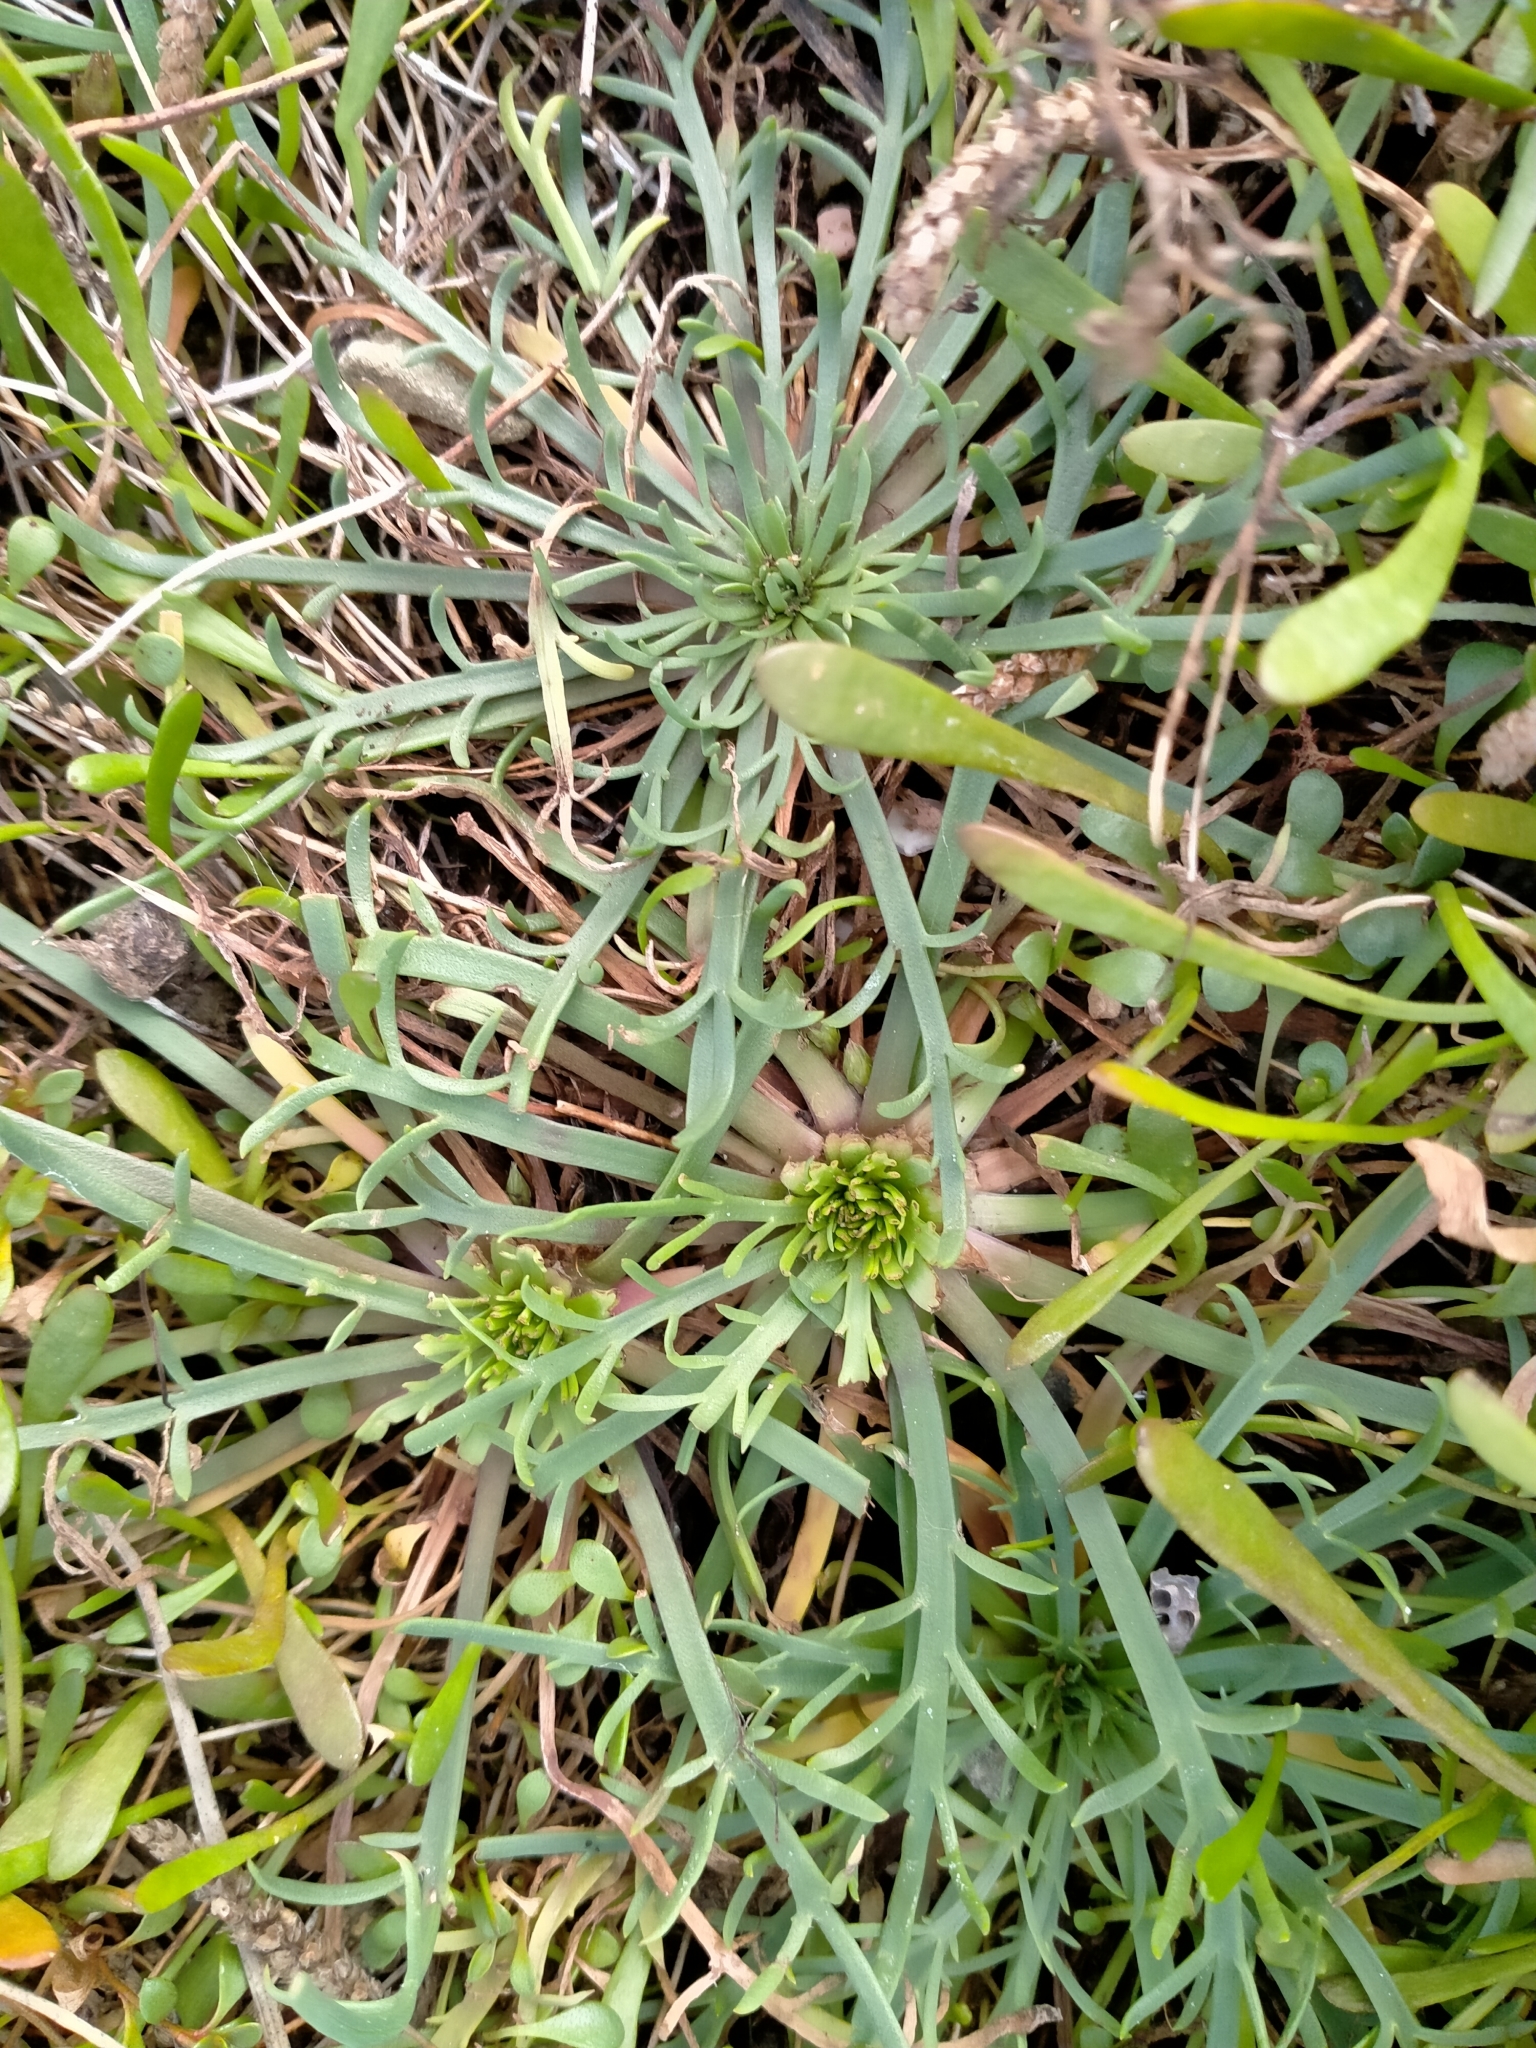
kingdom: Plantae
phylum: Tracheophyta
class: Magnoliopsida
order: Lamiales
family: Plantaginaceae
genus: Plantago
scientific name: Plantago coronopus
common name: Buck's-horn plantain
